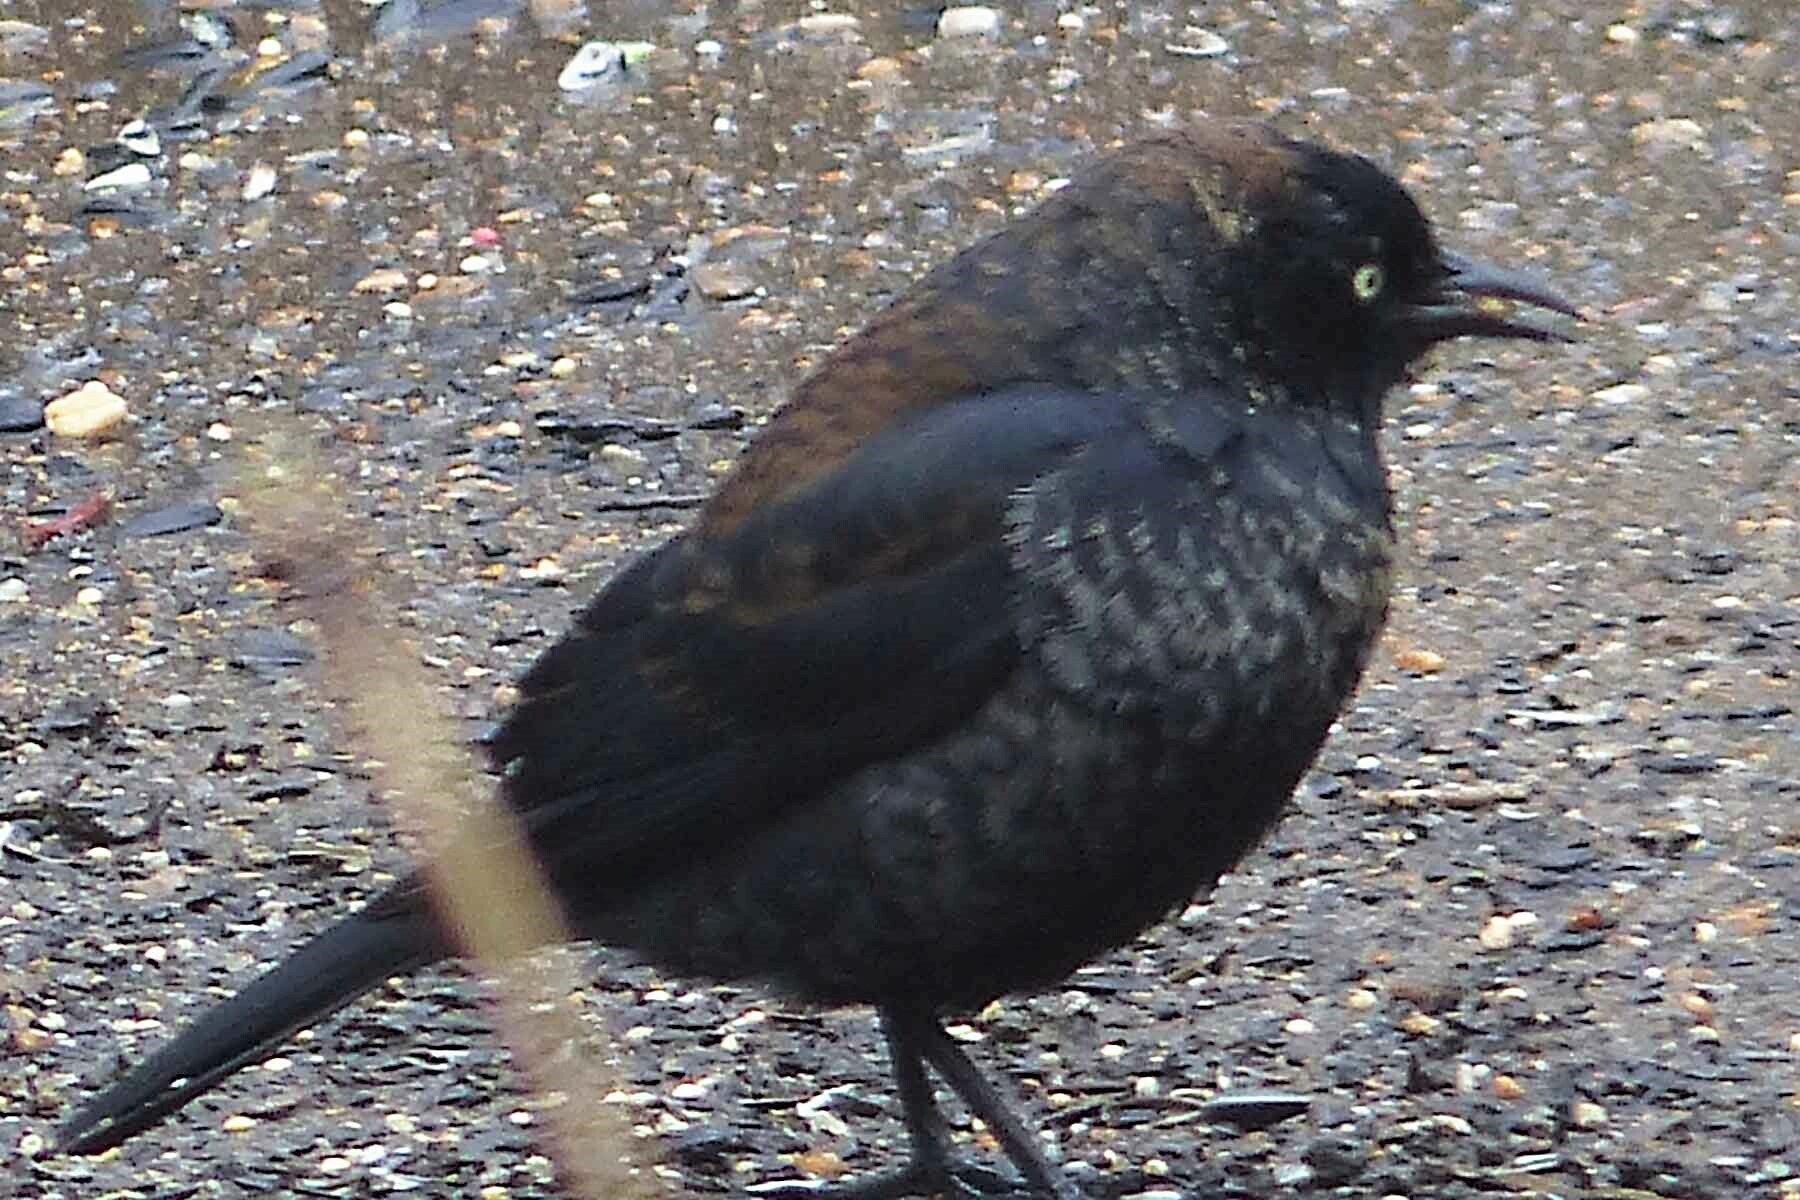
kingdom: Animalia
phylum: Chordata
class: Aves
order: Passeriformes
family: Icteridae
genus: Euphagus
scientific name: Euphagus carolinus
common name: Rusty blackbird
